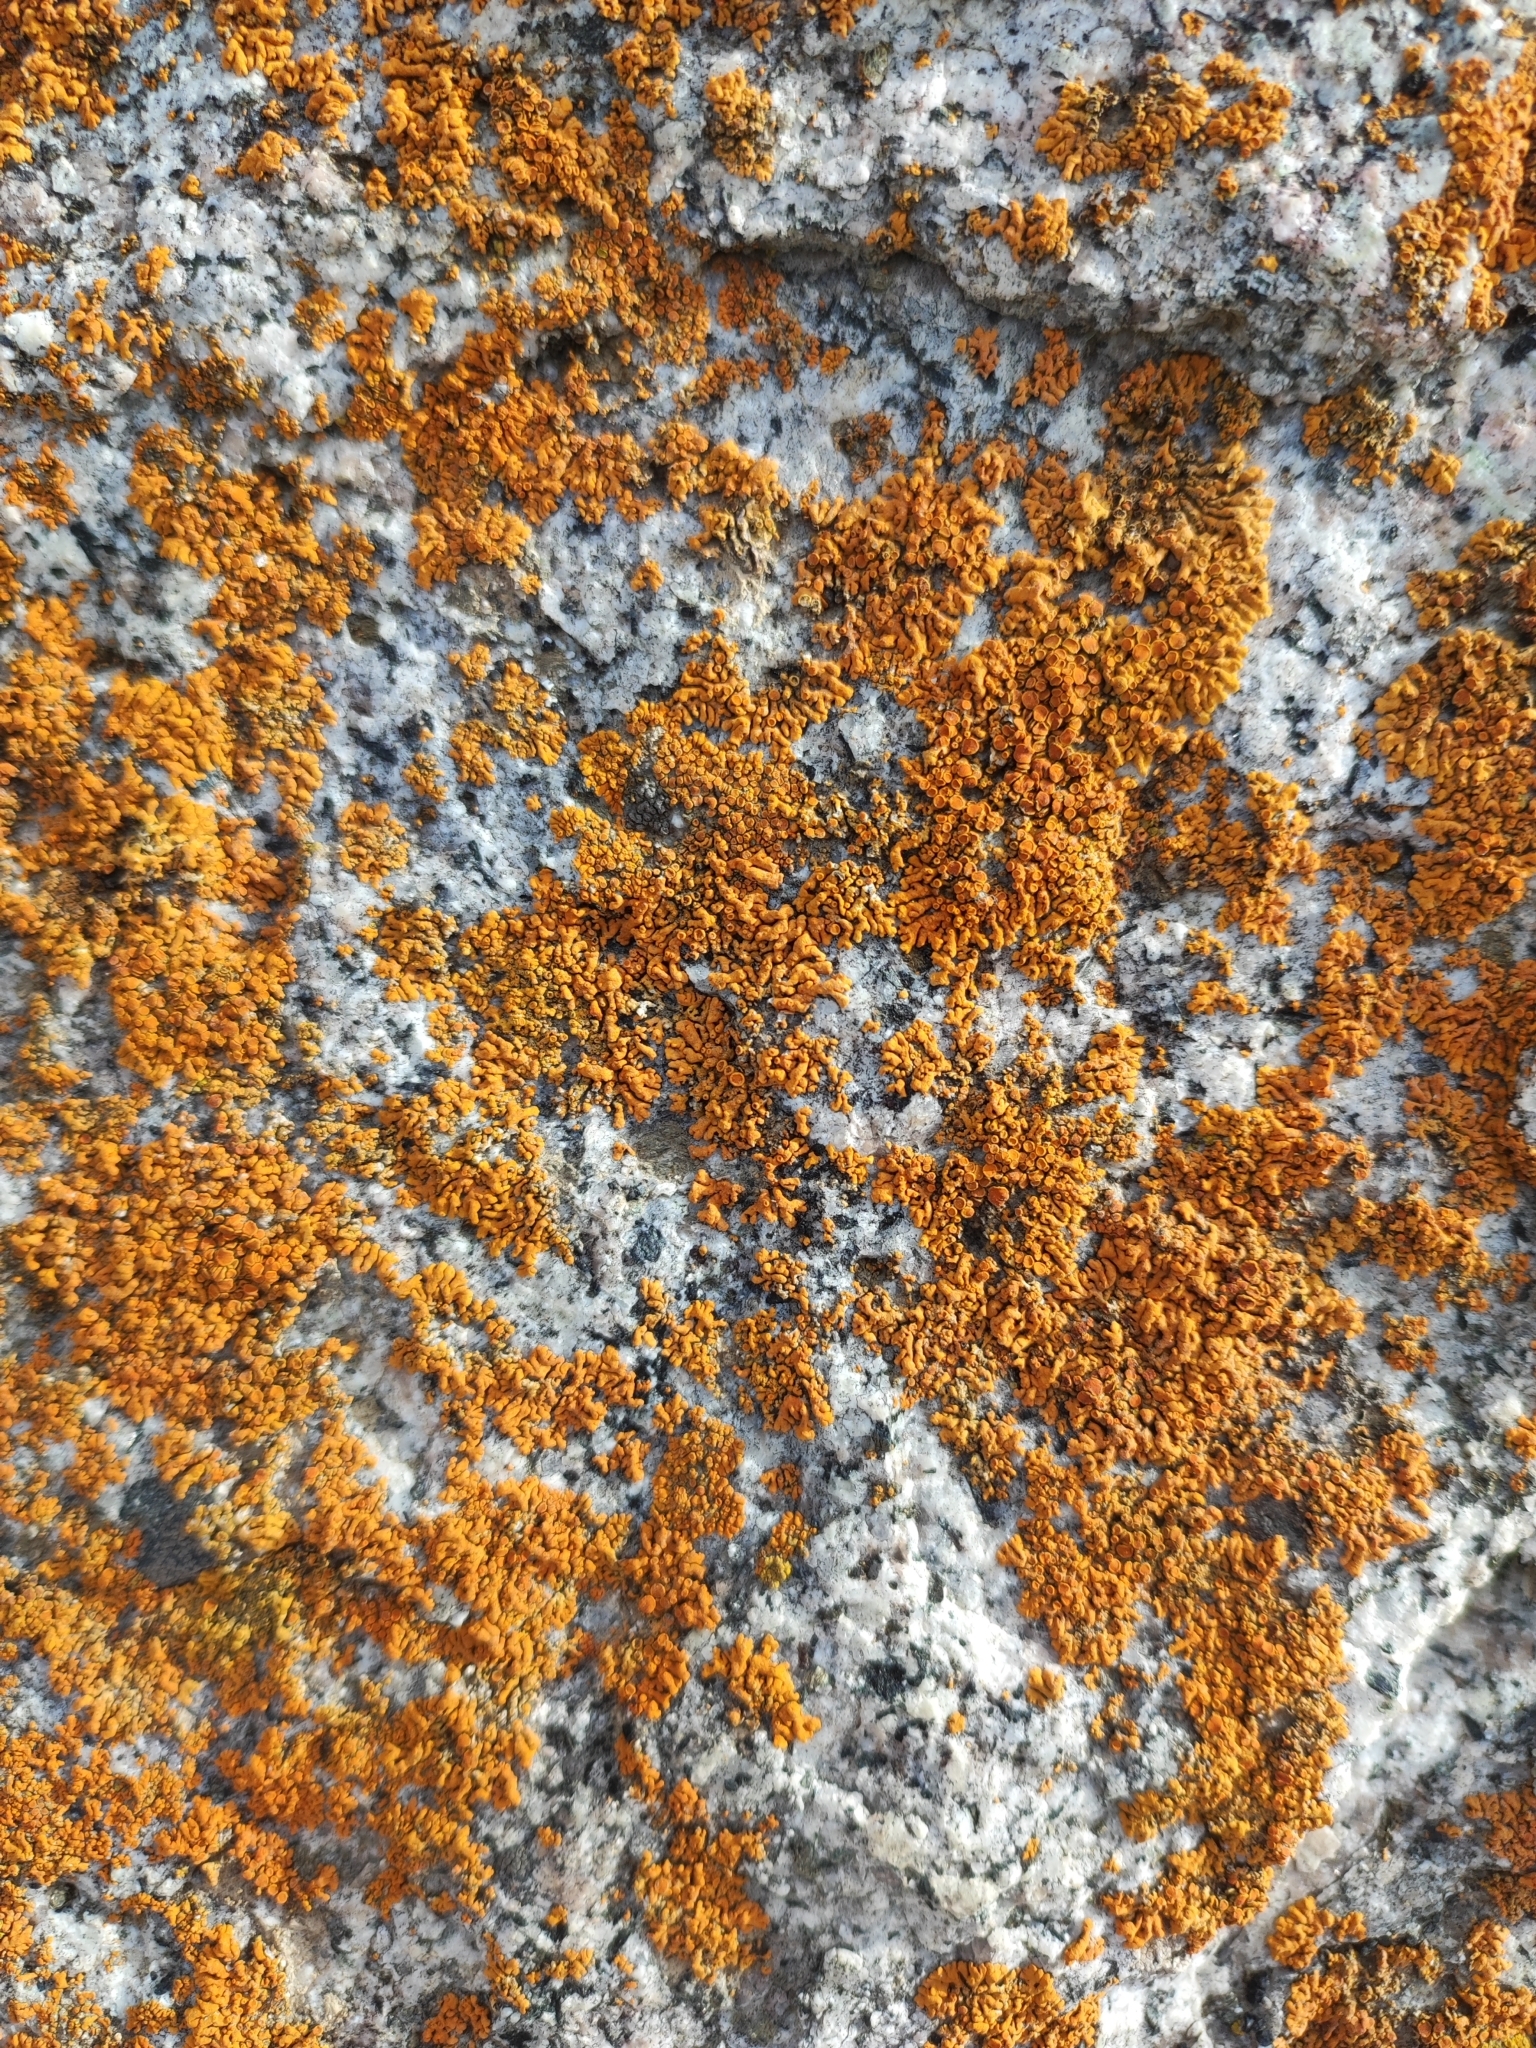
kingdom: Fungi
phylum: Ascomycota
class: Lecanoromycetes
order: Teloschistales
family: Teloschistaceae
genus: Xanthoria
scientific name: Xanthoria elegans
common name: Elegant sunburst lichen
